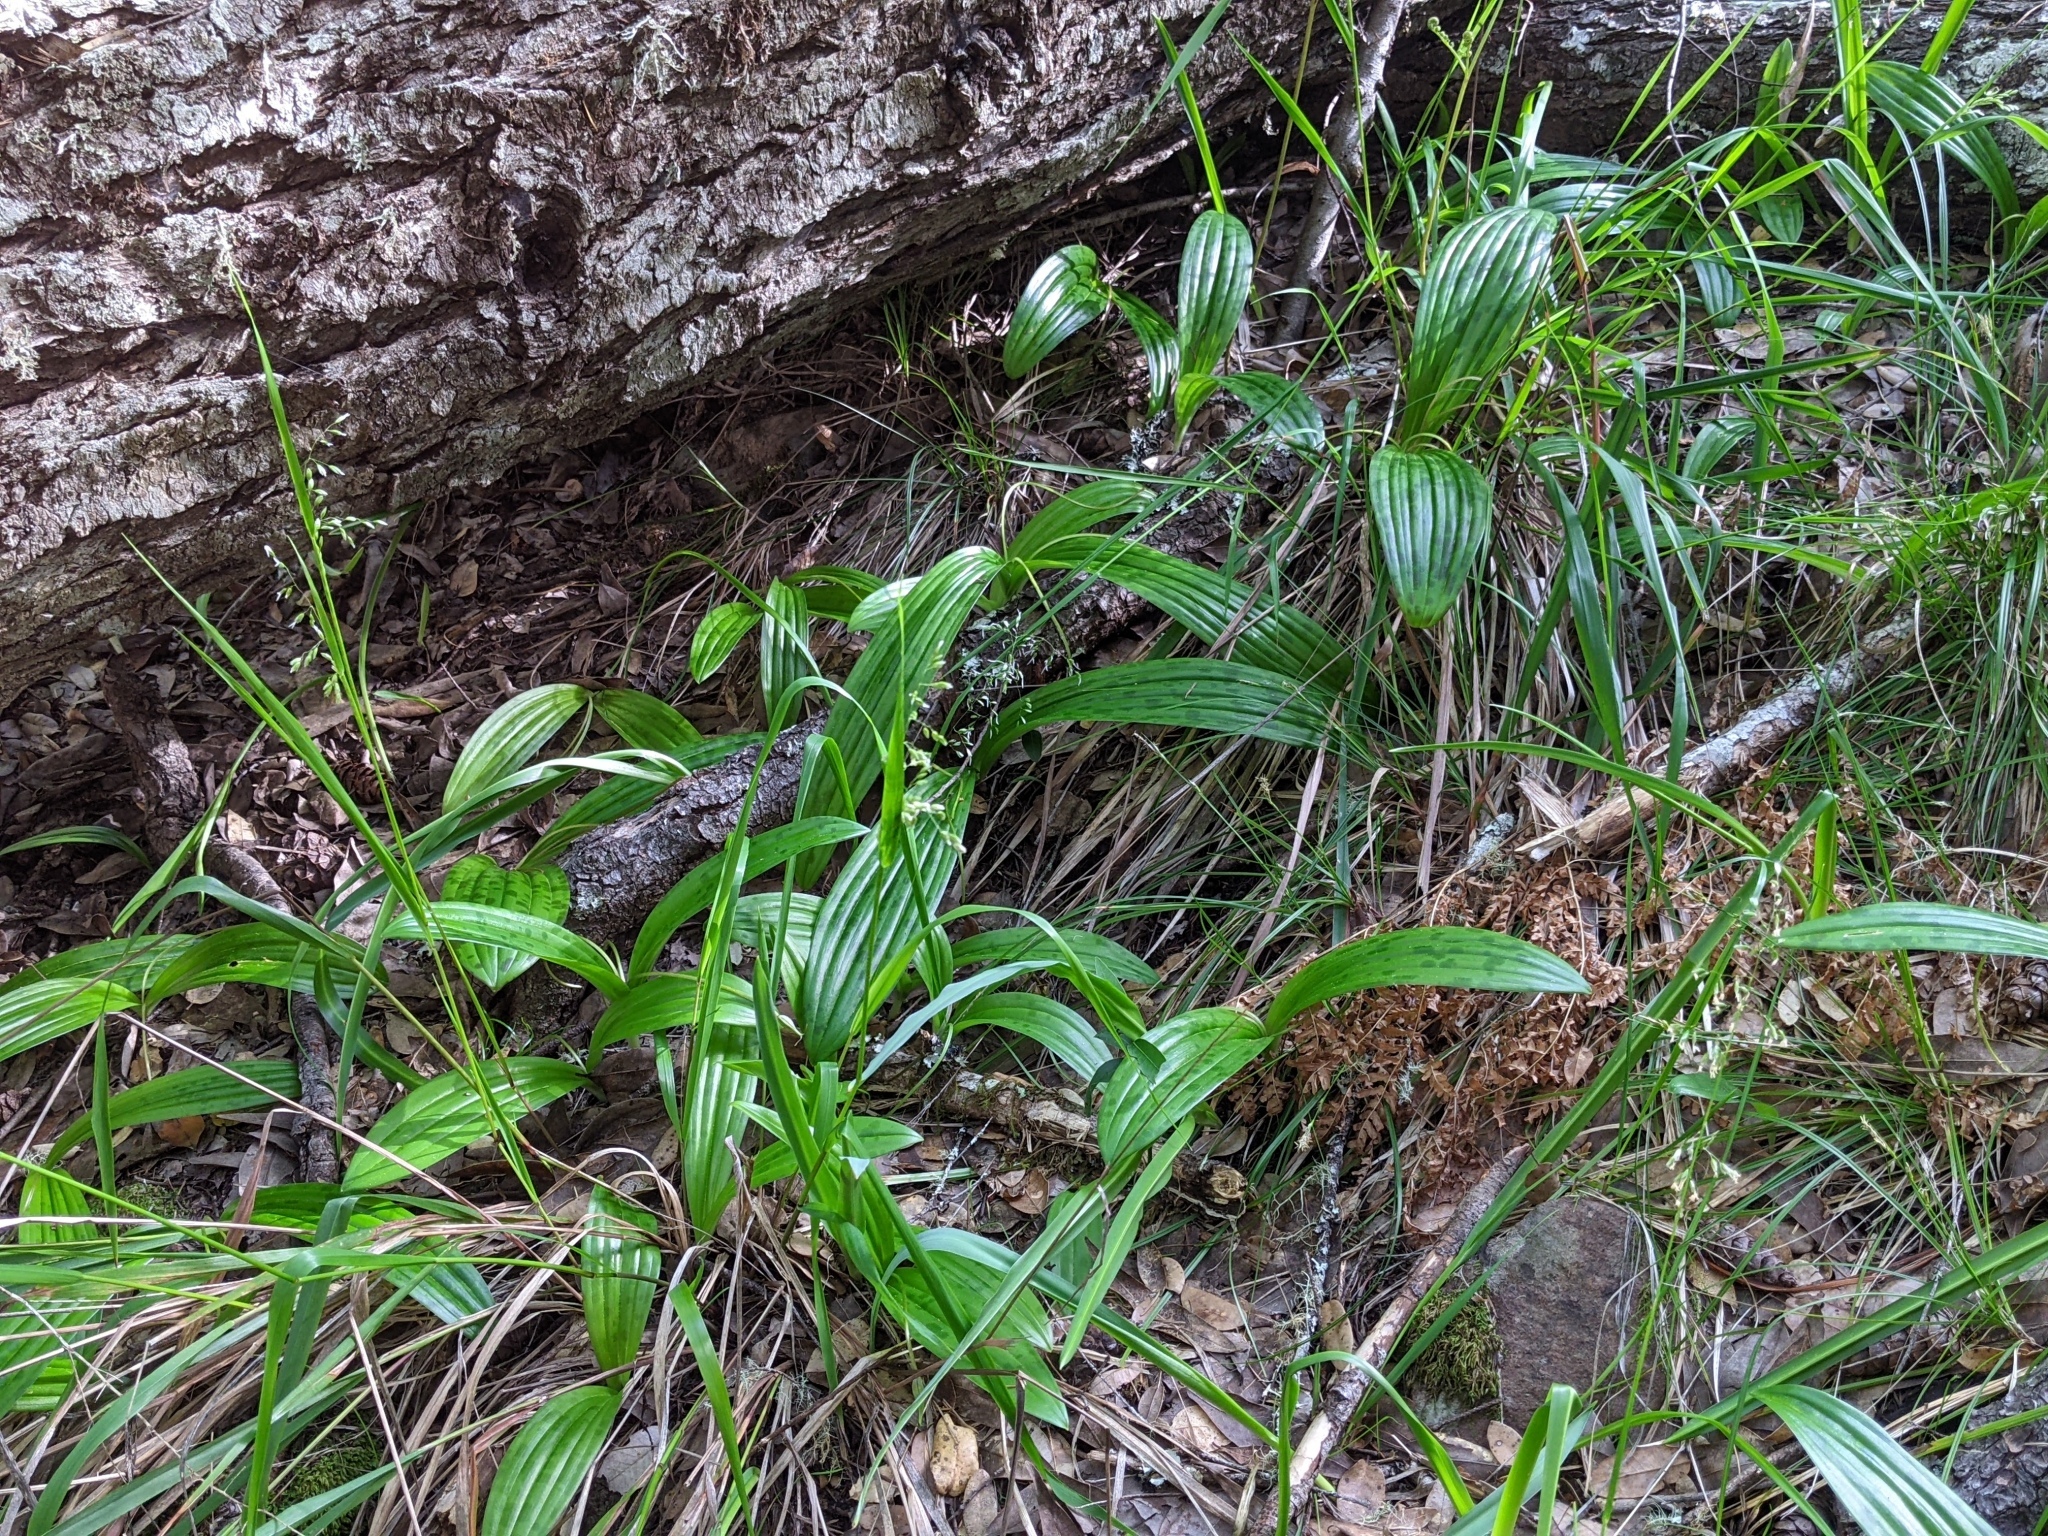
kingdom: Plantae
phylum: Tracheophyta
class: Liliopsida
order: Liliales
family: Liliaceae
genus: Scoliopus
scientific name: Scoliopus bigelovii
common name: Foetid adder's-tongue
